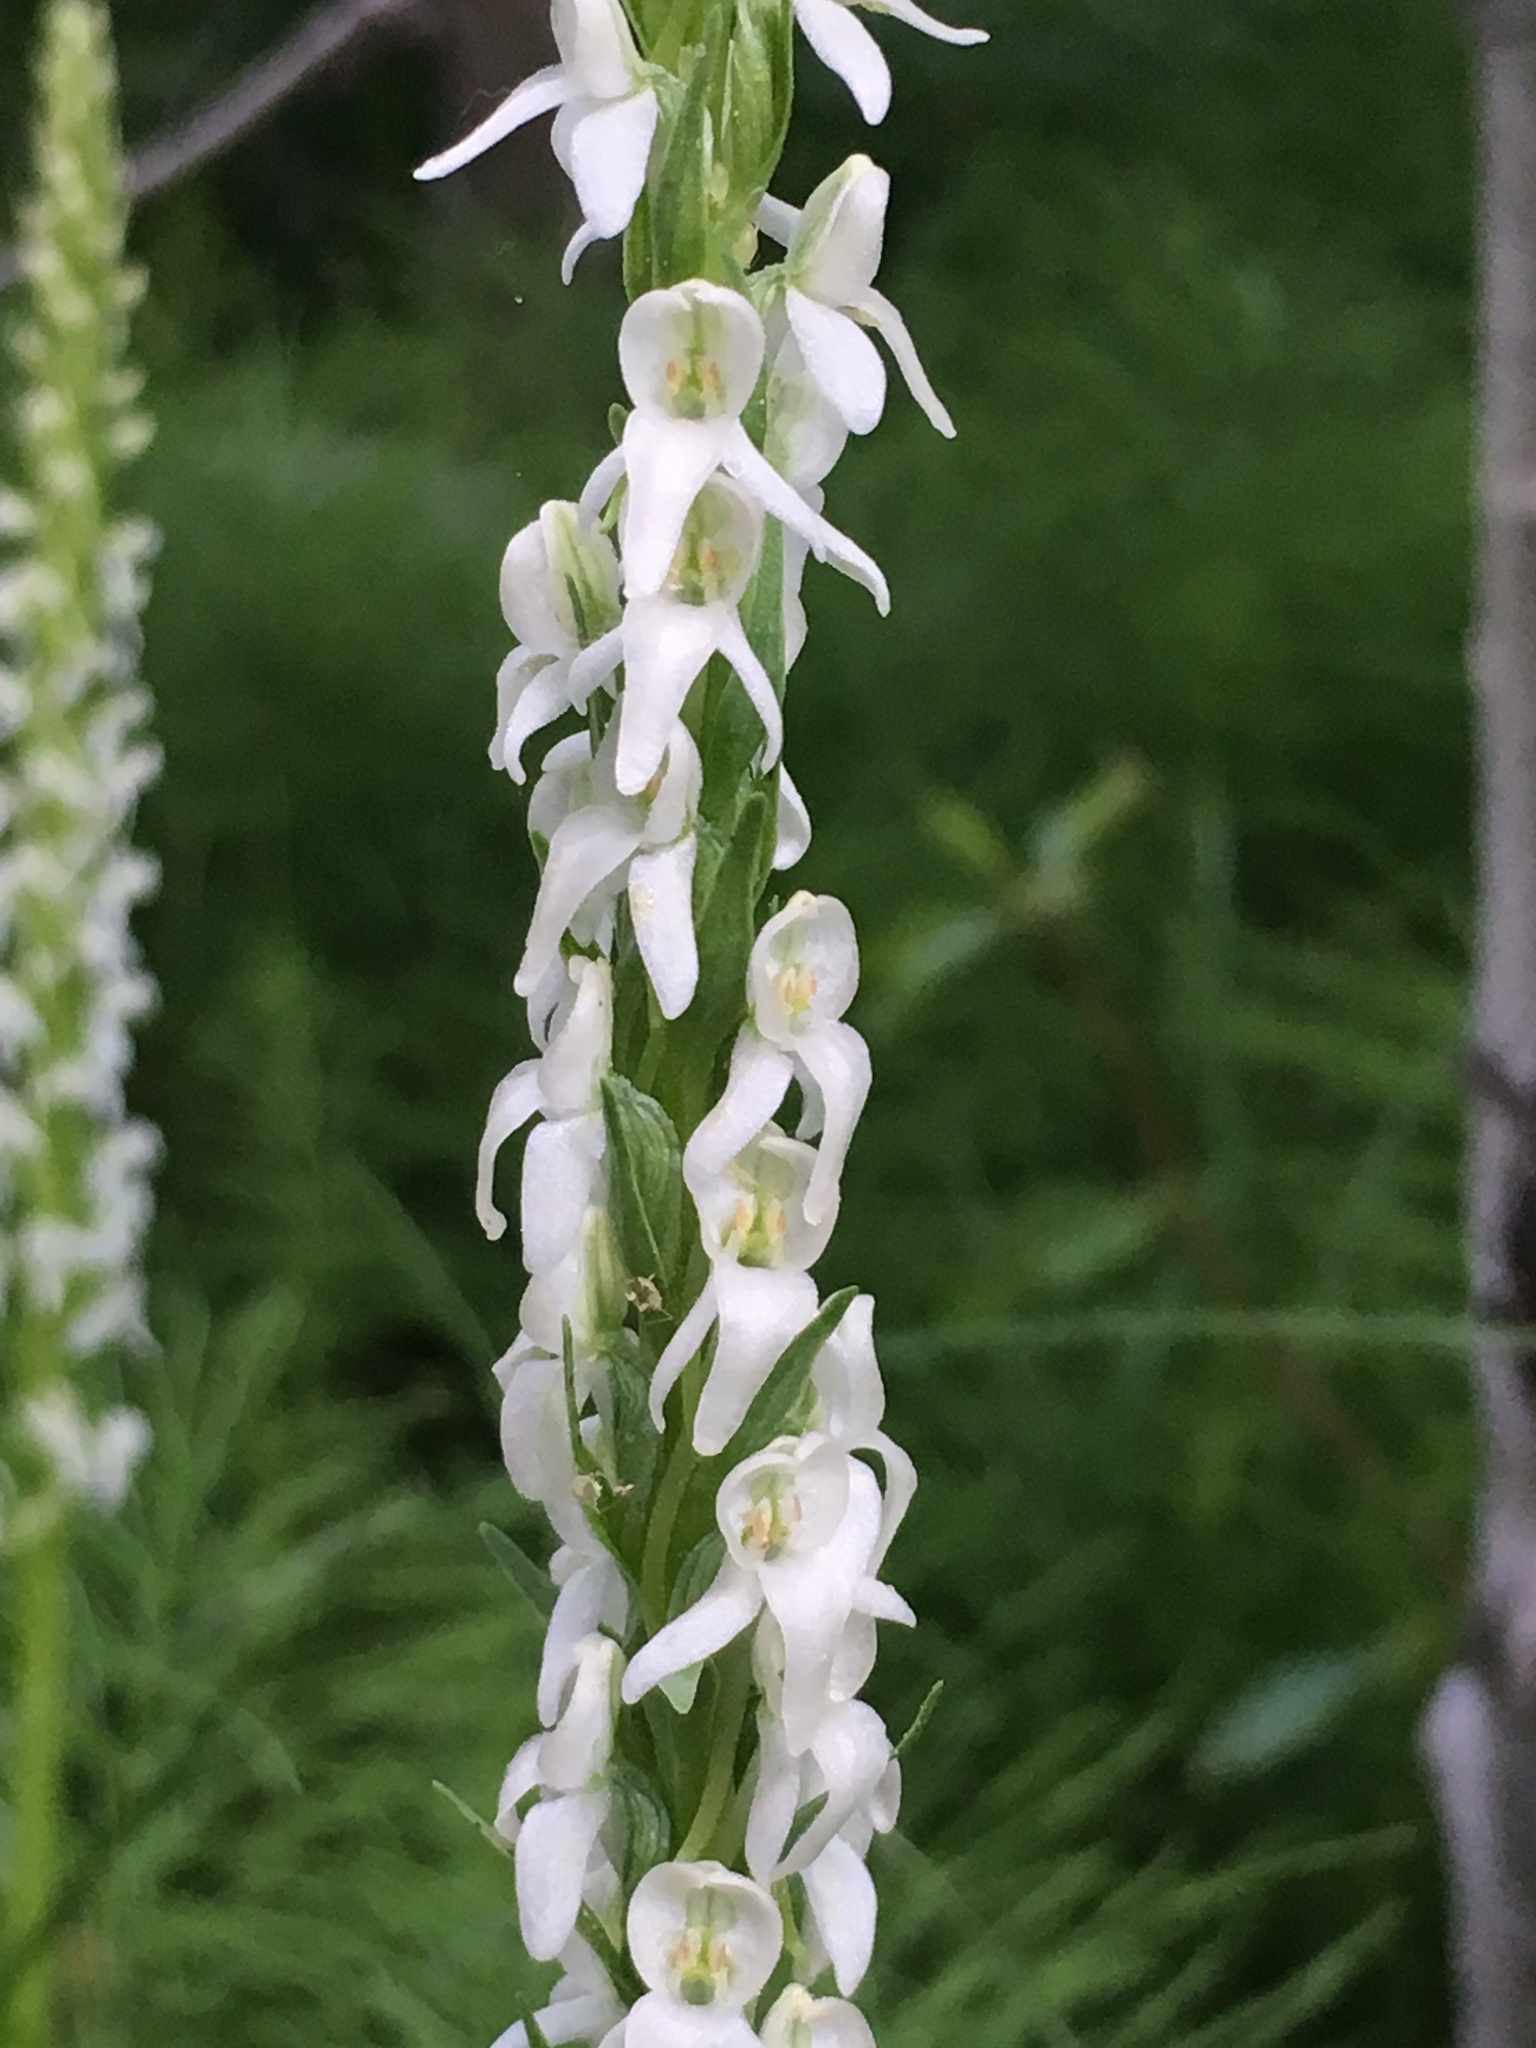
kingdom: Plantae
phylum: Tracheophyta
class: Liliopsida
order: Asparagales
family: Orchidaceae
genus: Platanthera
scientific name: Platanthera dilatata
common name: Bog candles
